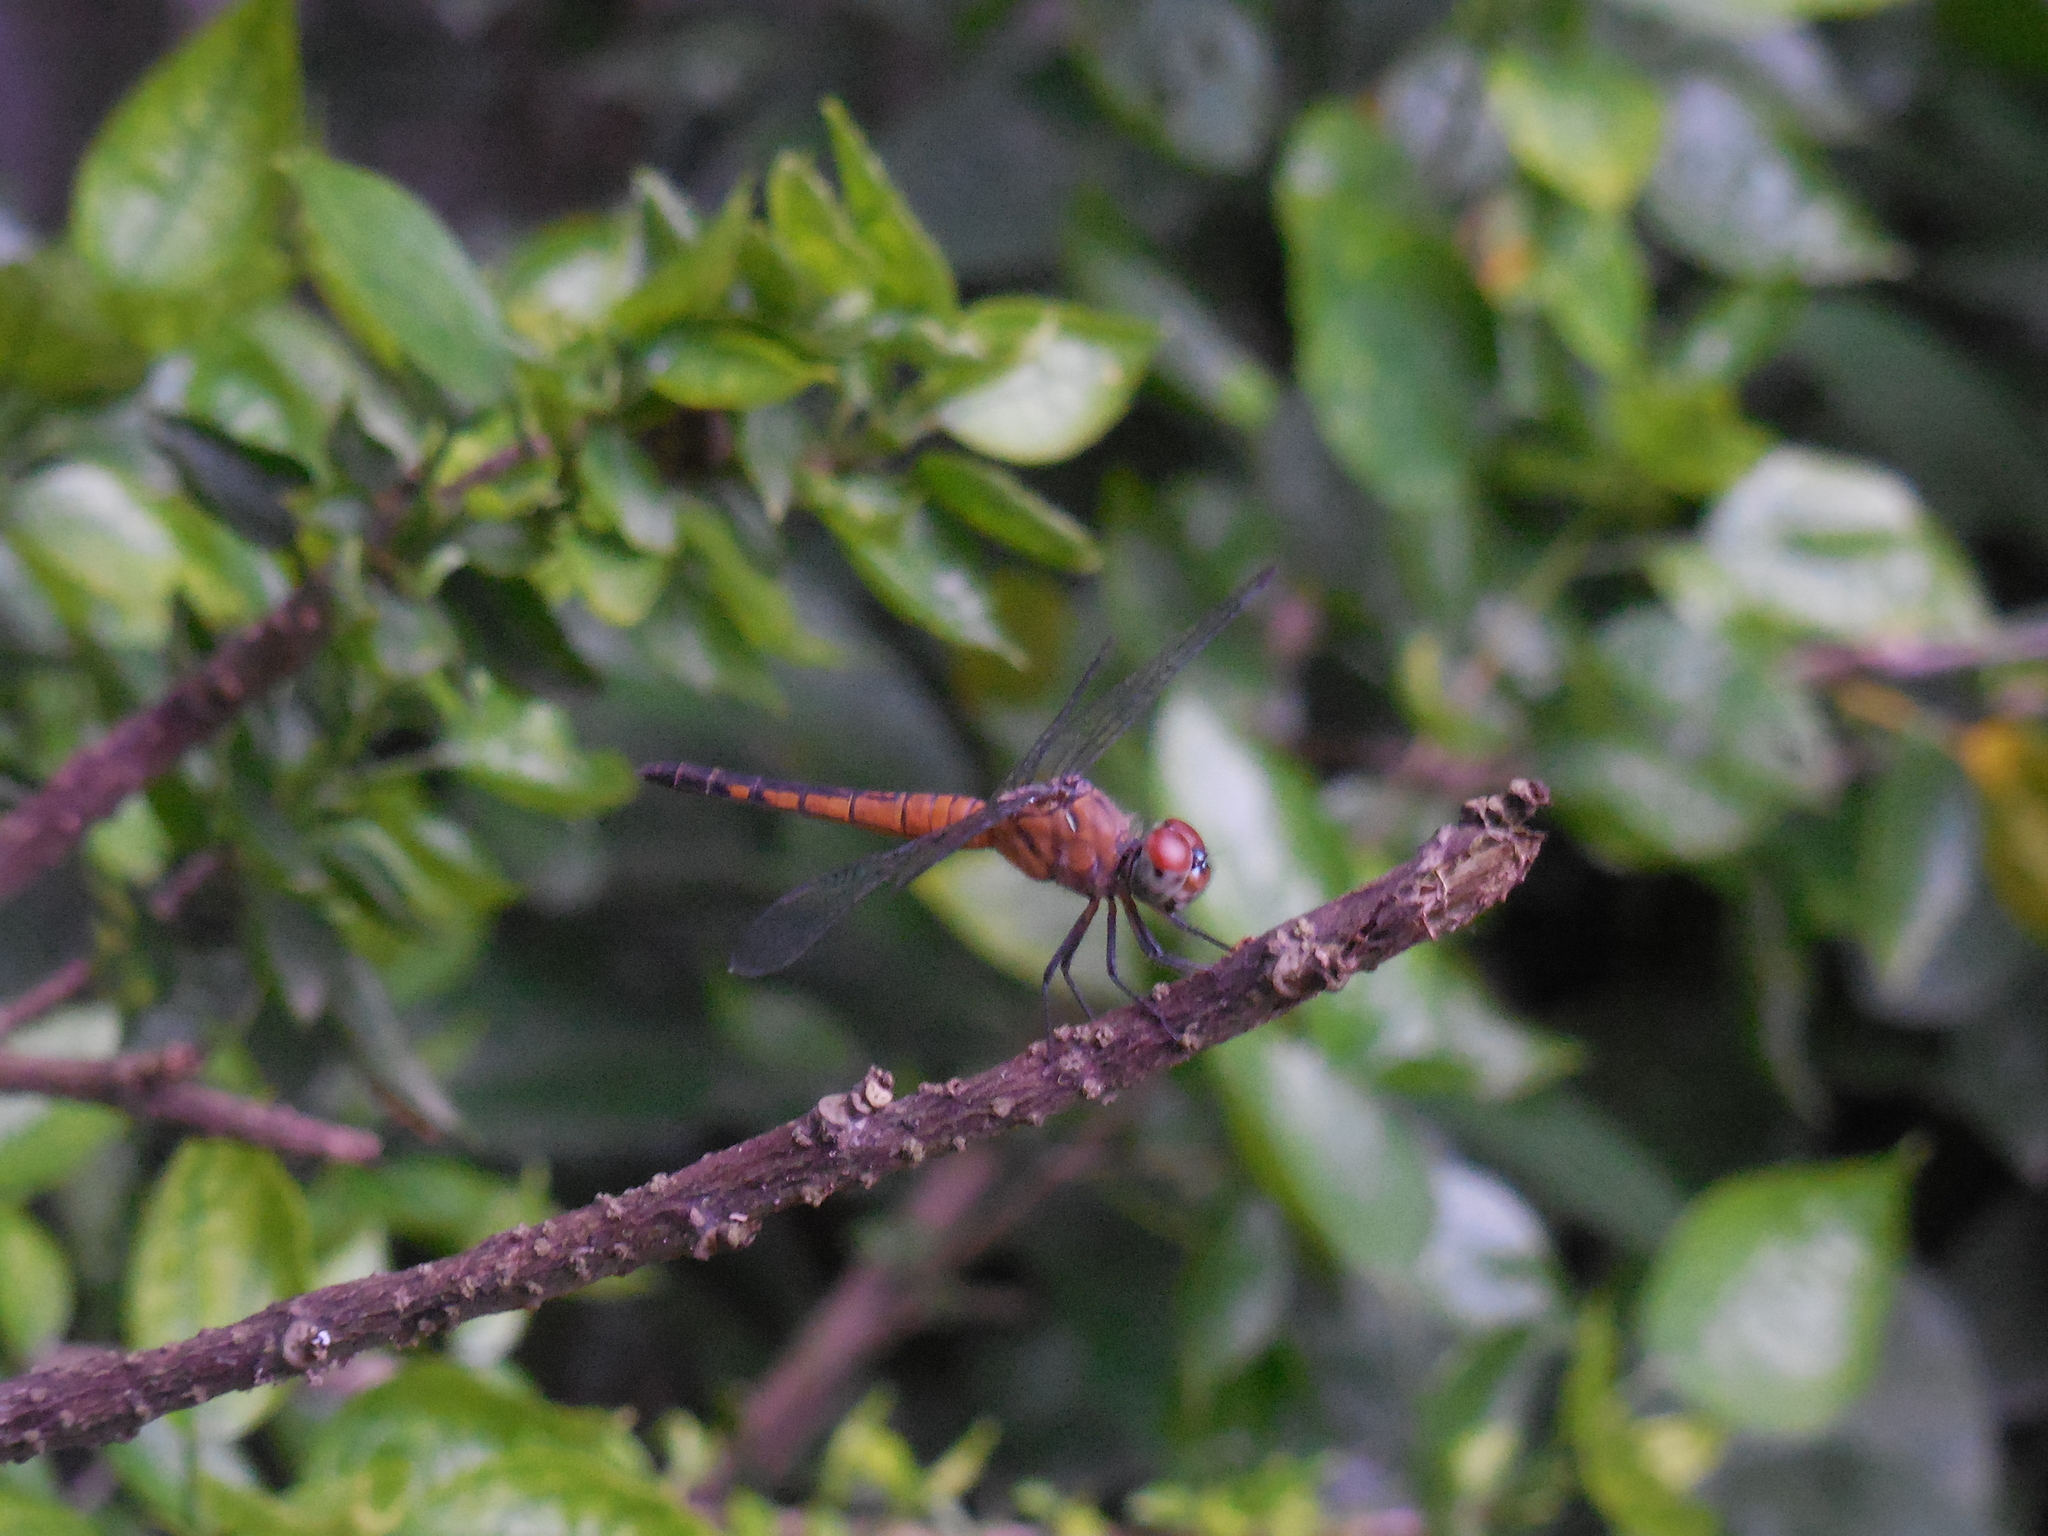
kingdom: Animalia
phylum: Arthropoda
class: Insecta
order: Odonata
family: Libellulidae
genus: Brachydiplax
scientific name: Brachydiplax chalybea
